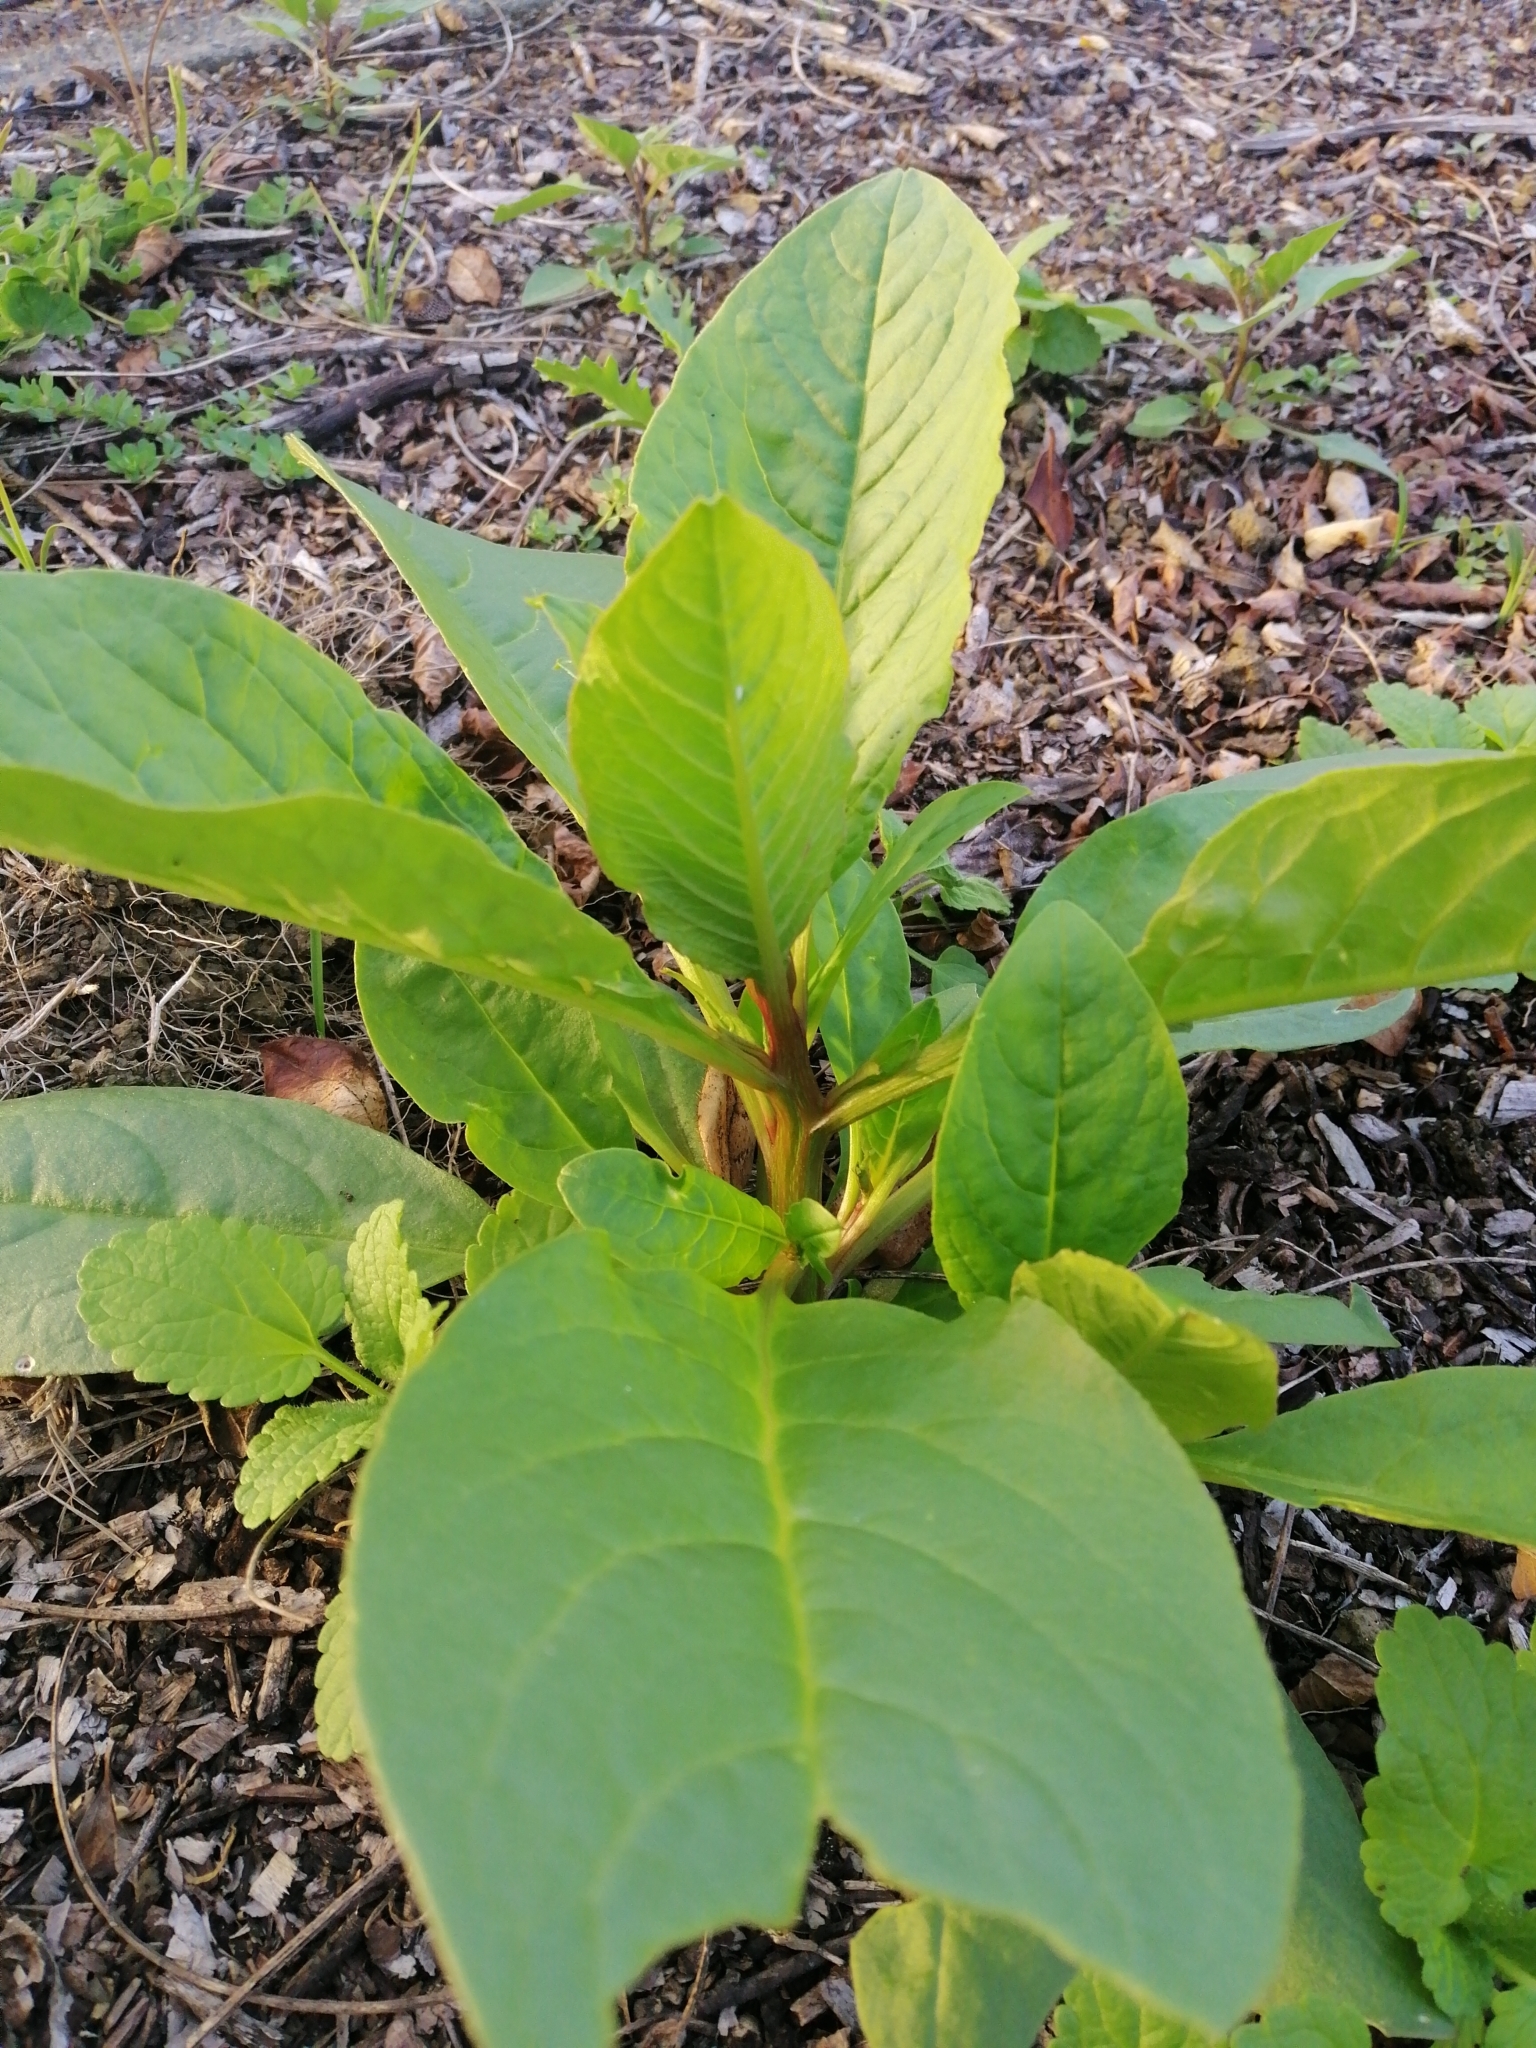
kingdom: Plantae
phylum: Tracheophyta
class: Magnoliopsida
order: Caryophyllales
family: Phytolaccaceae
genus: Phytolacca
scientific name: Phytolacca icosandra
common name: Button pokeweed
